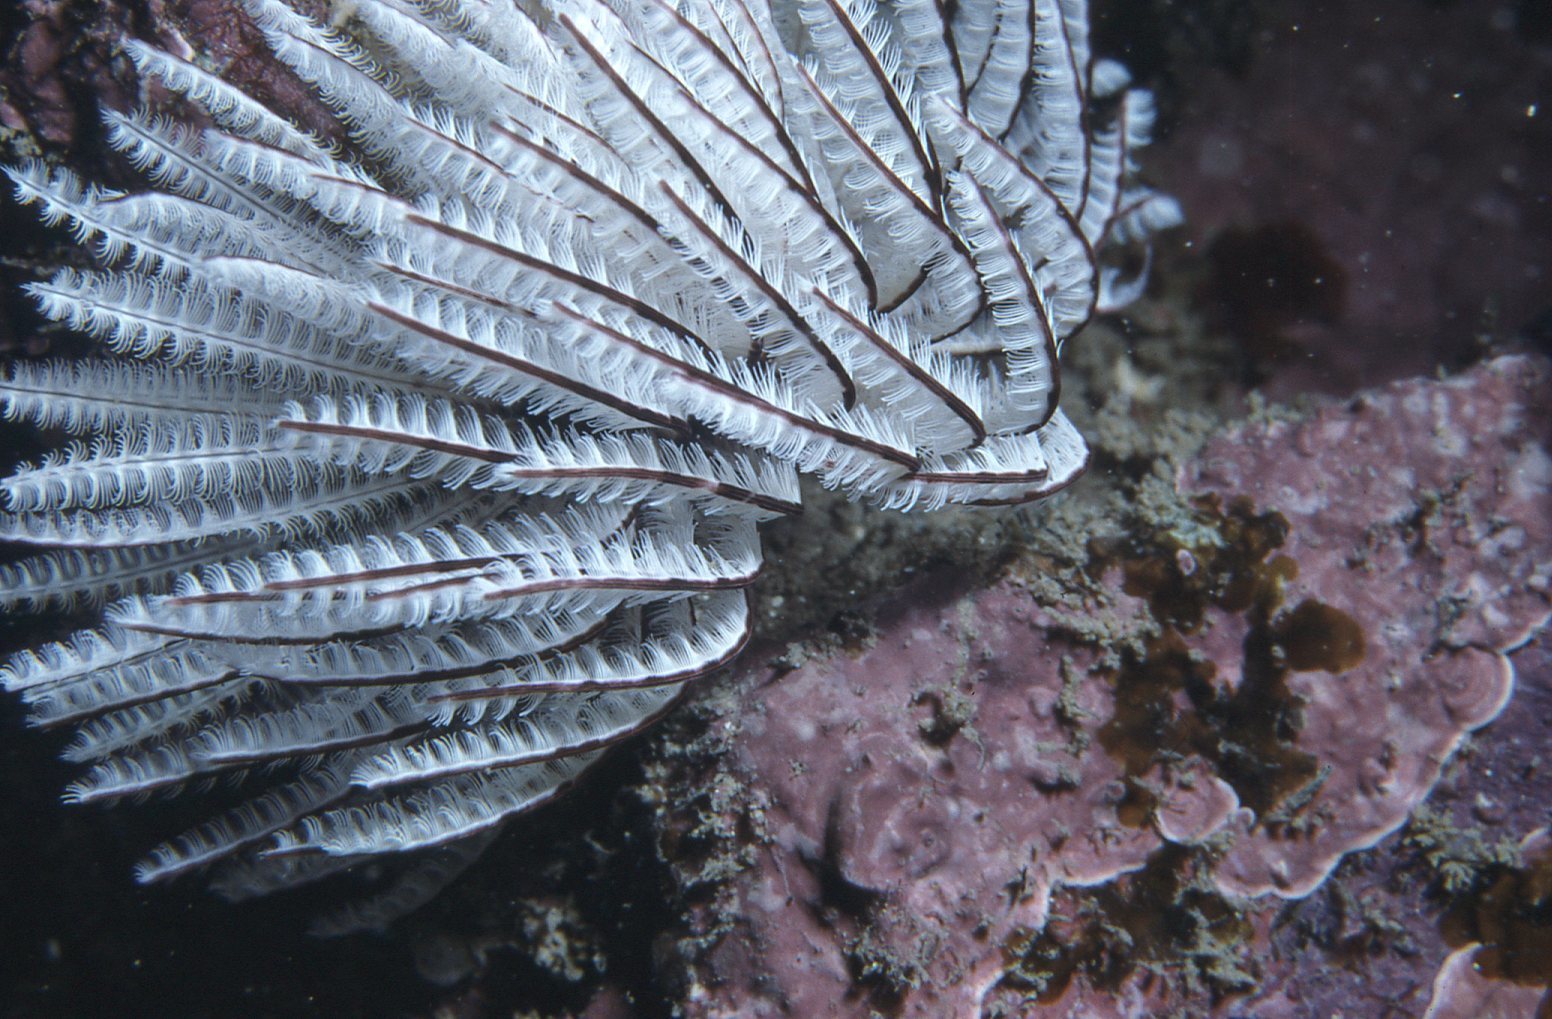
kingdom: Animalia
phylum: Annelida
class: Polychaeta
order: Sabellida
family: Sabellidae
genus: Sabellastarte
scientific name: Sabellastarte australiensis
